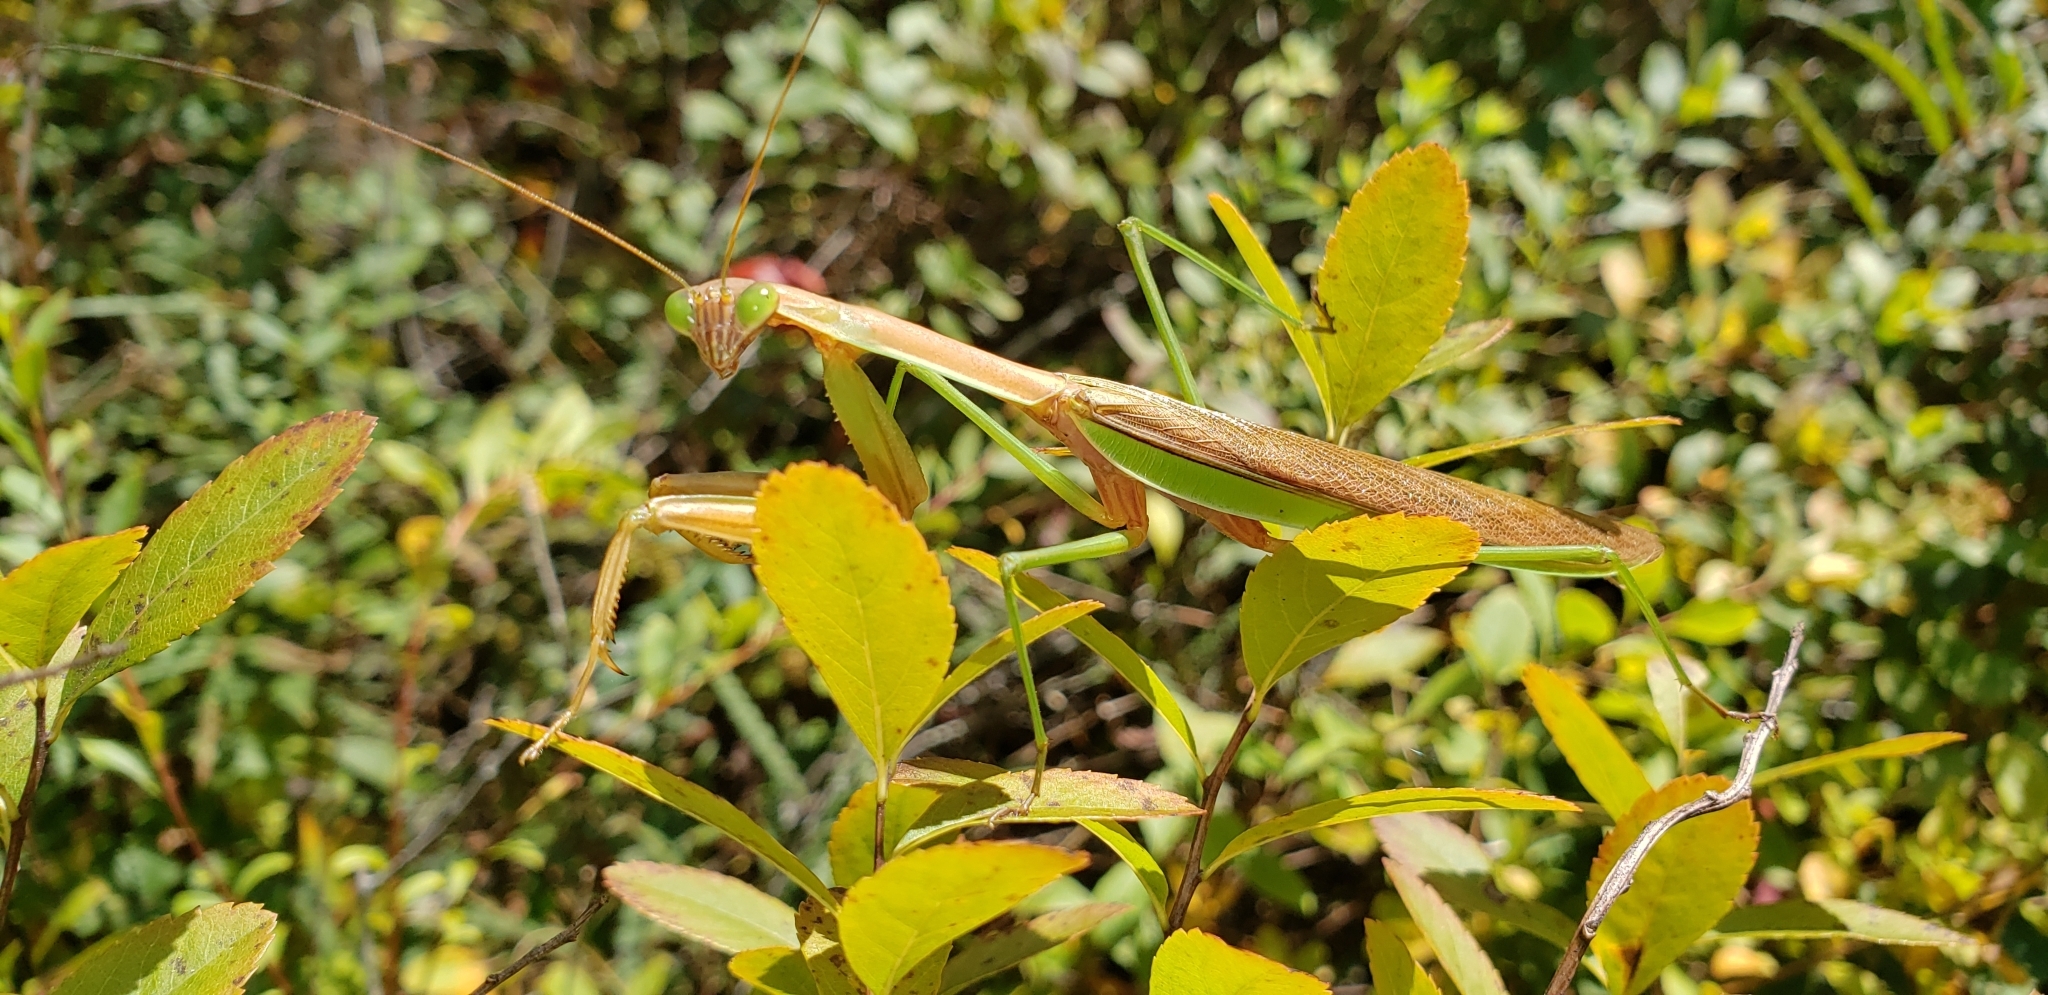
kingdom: Animalia
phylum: Arthropoda
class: Insecta
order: Mantodea
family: Mantidae
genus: Tenodera
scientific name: Tenodera sinensis
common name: Chinese mantis
